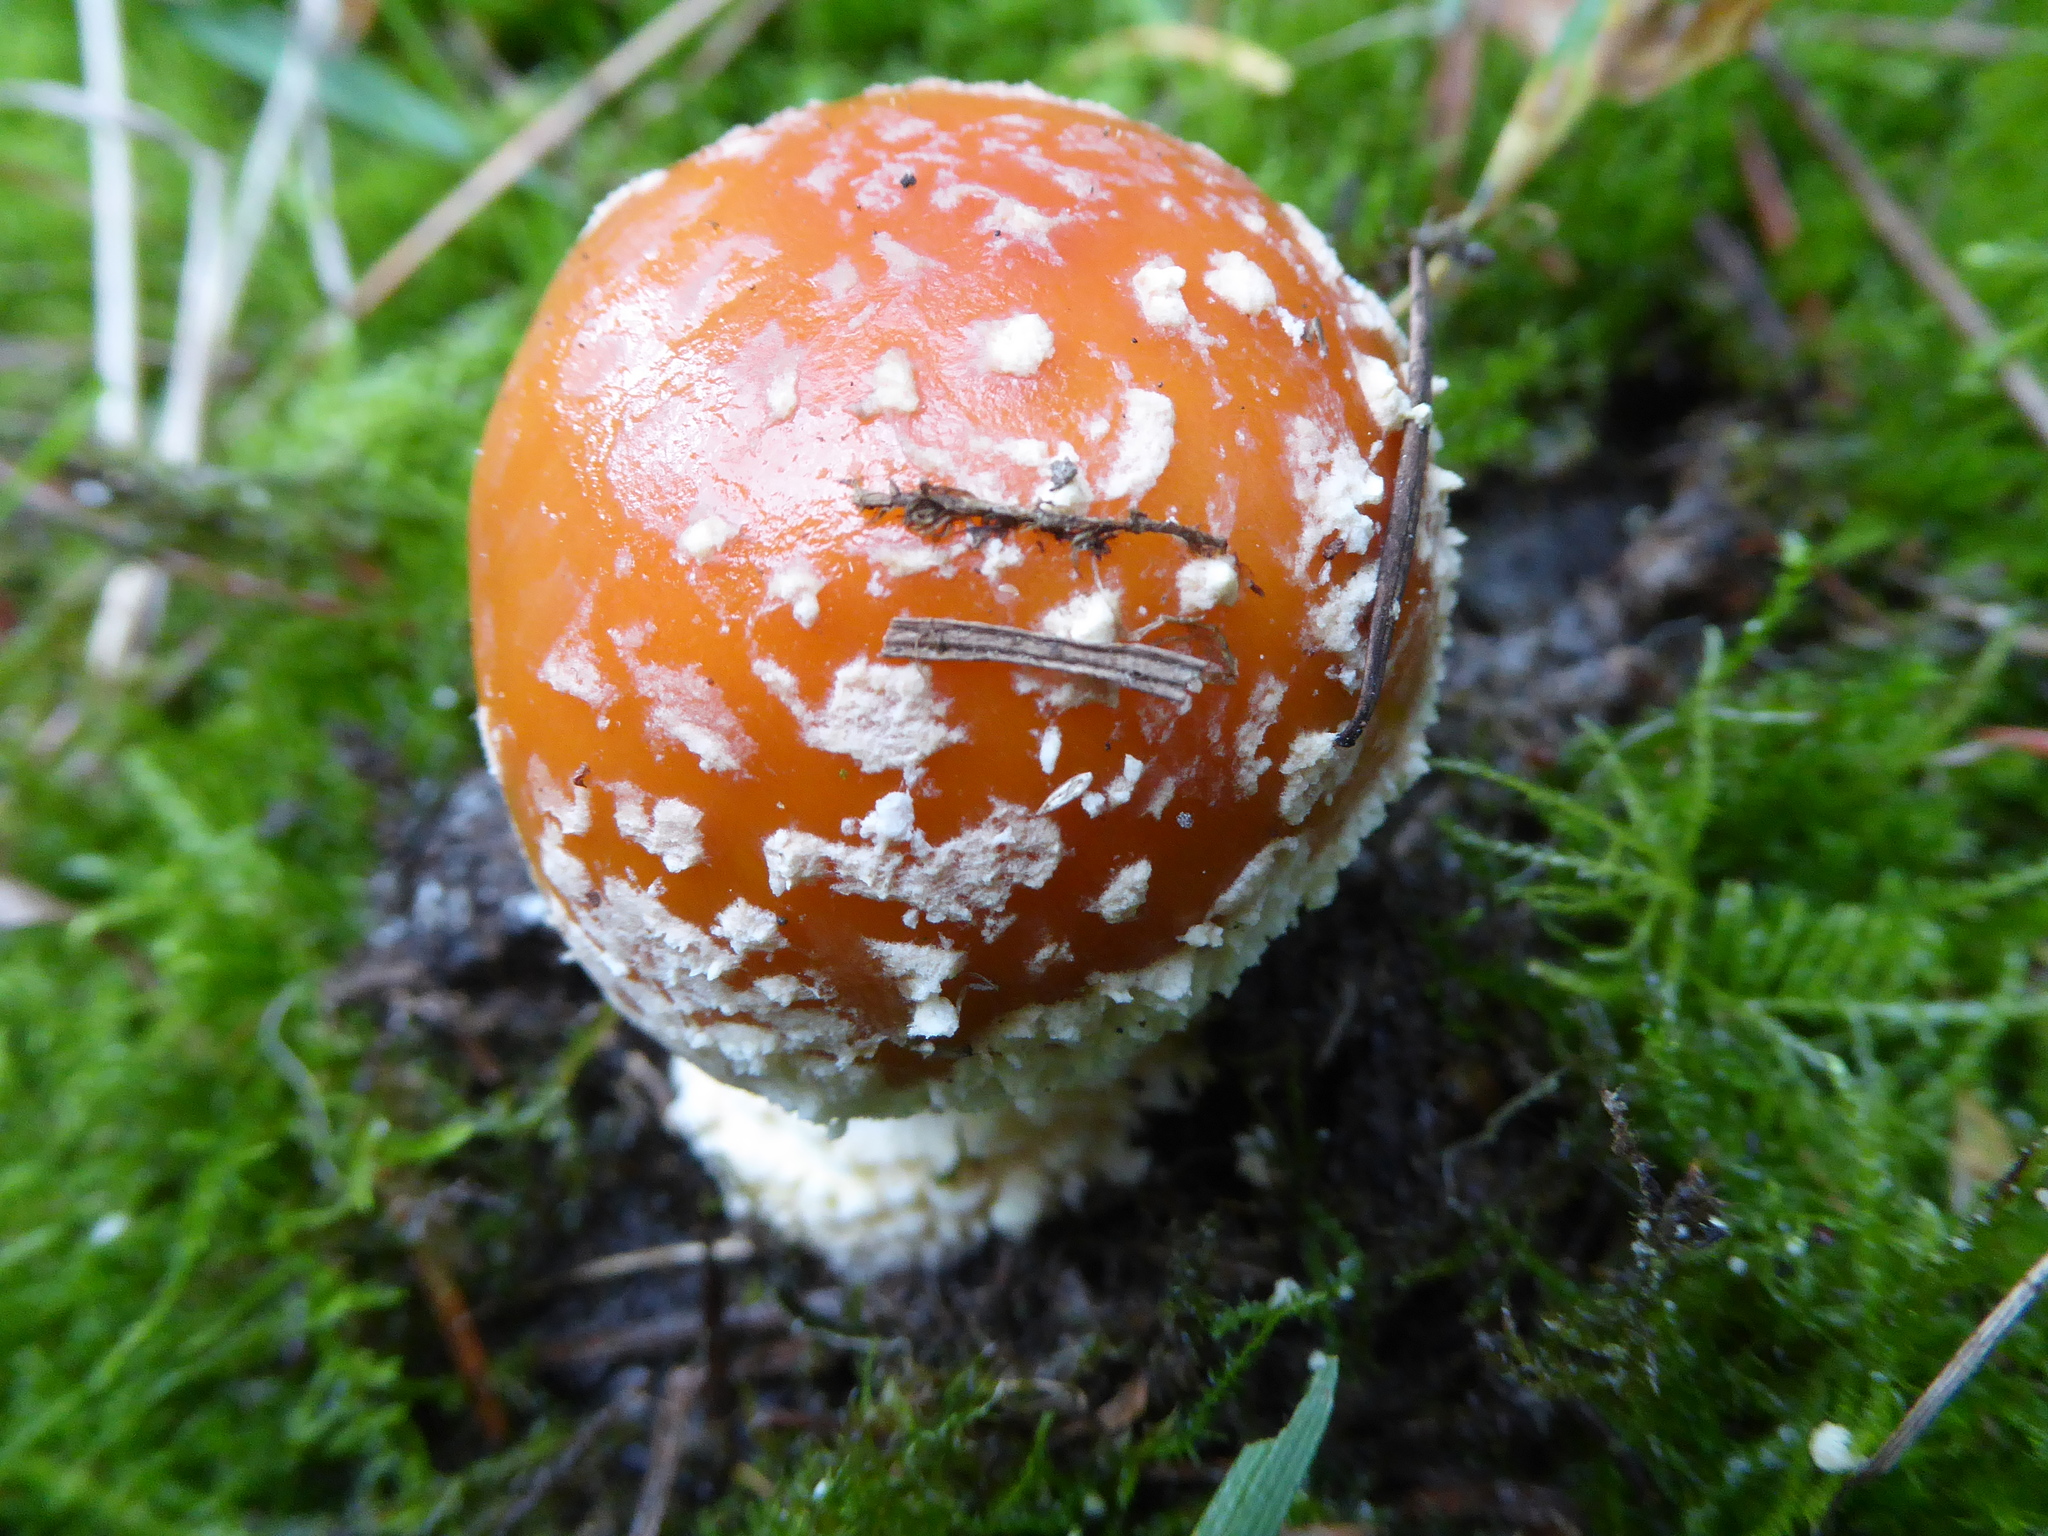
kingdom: Fungi
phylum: Basidiomycota
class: Agaricomycetes
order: Agaricales
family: Amanitaceae
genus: Amanita
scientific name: Amanita muscaria
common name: Fly agaric
